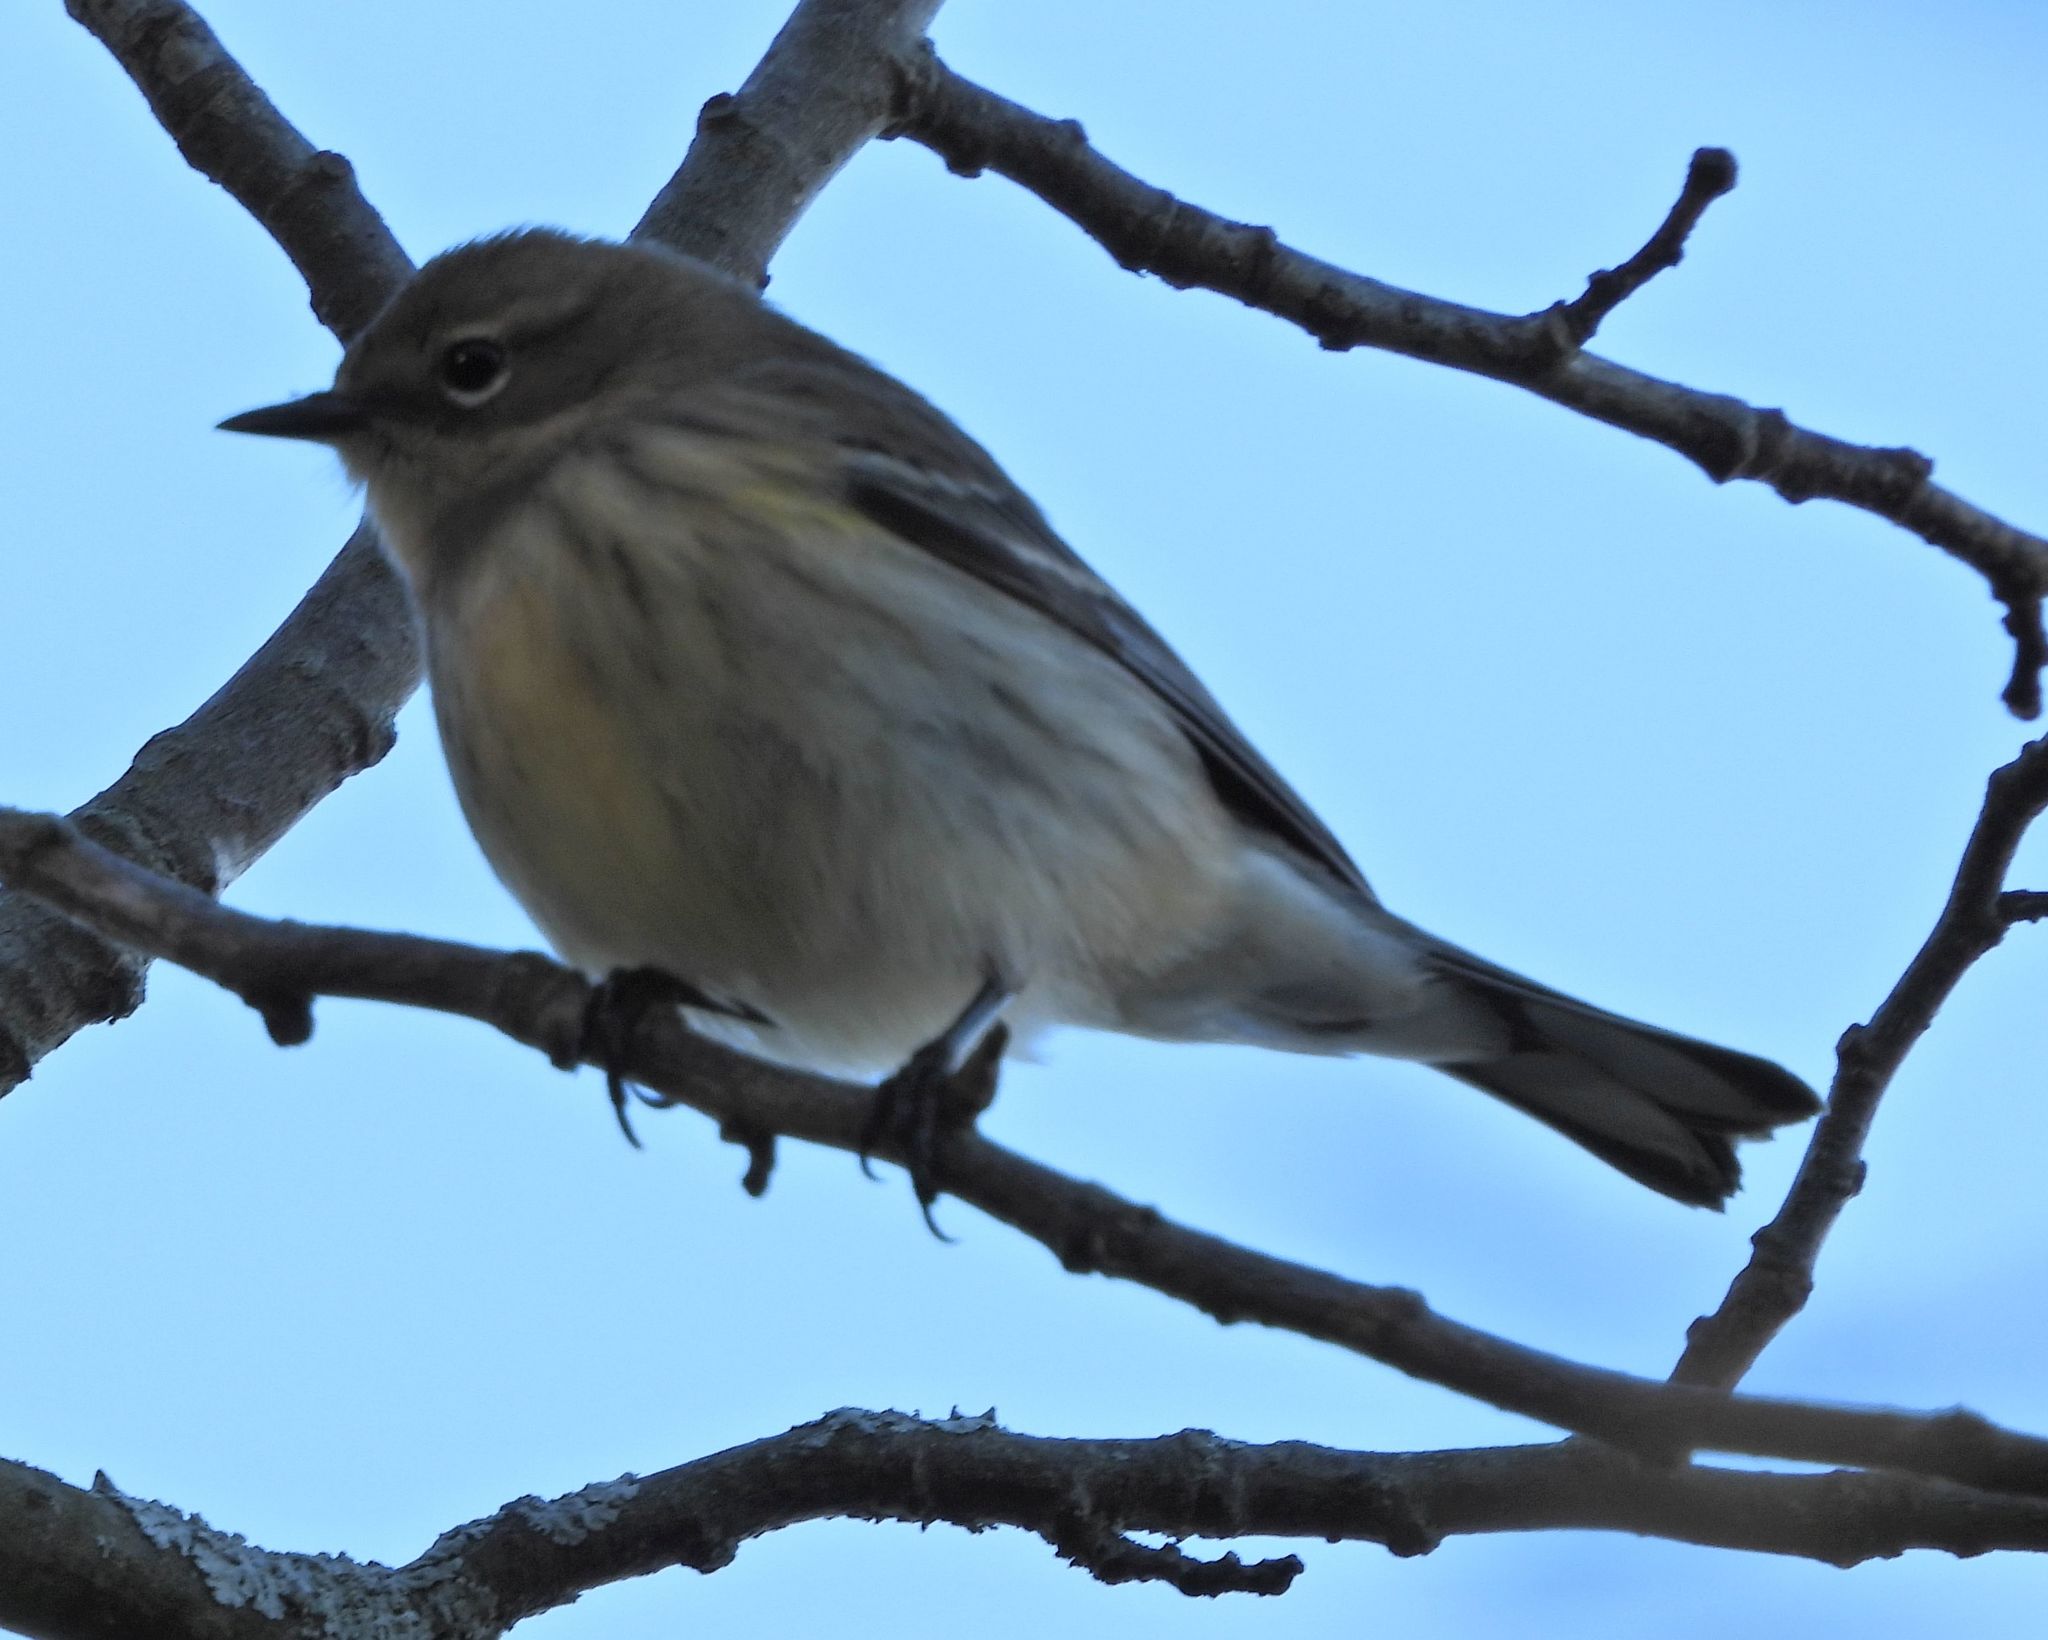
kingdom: Animalia
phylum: Chordata
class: Aves
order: Passeriformes
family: Parulidae
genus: Setophaga
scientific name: Setophaga coronata
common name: Myrtle warbler
